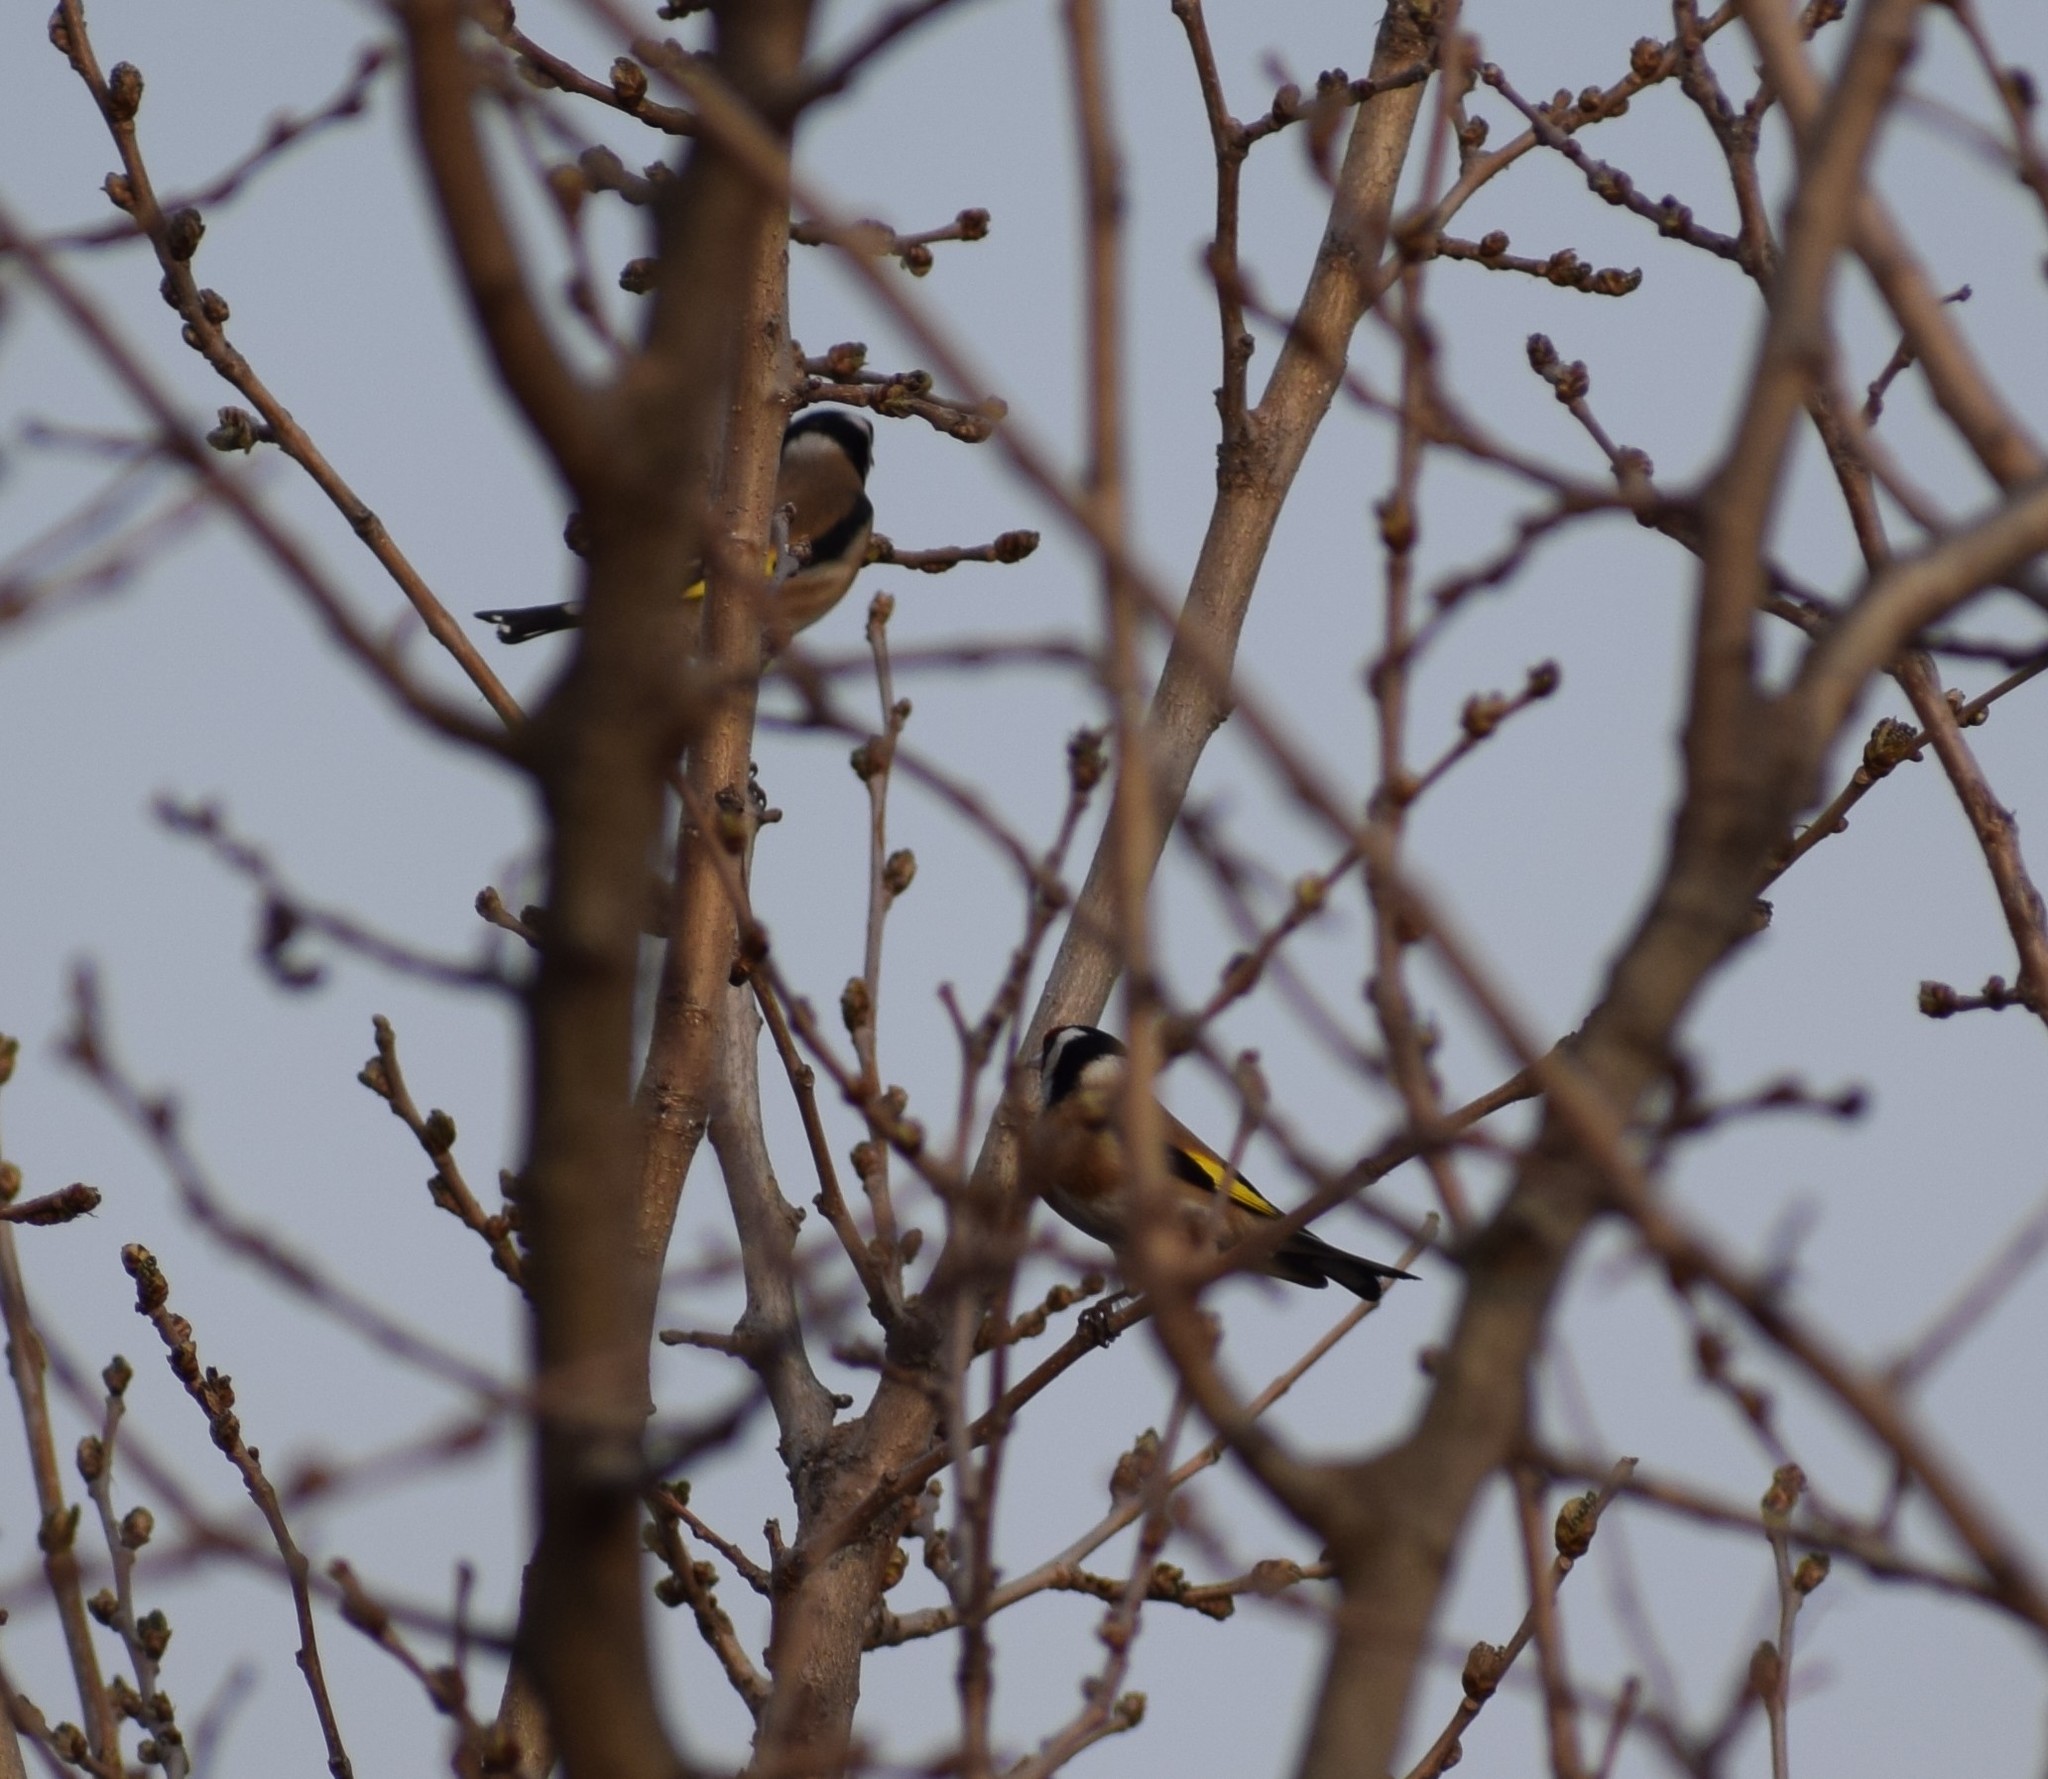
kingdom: Animalia
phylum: Chordata
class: Aves
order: Passeriformes
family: Fringillidae
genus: Carduelis
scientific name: Carduelis carduelis
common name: European goldfinch
